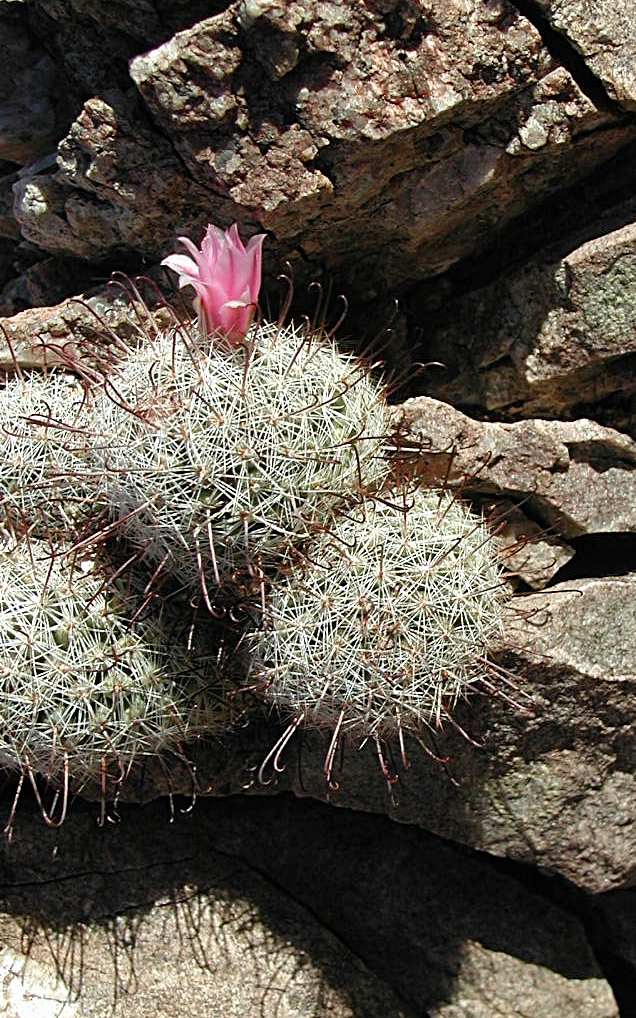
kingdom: Plantae
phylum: Tracheophyta
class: Magnoliopsida
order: Caryophyllales
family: Cactaceae
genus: Cochemiea
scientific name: Cochemiea grahamii
